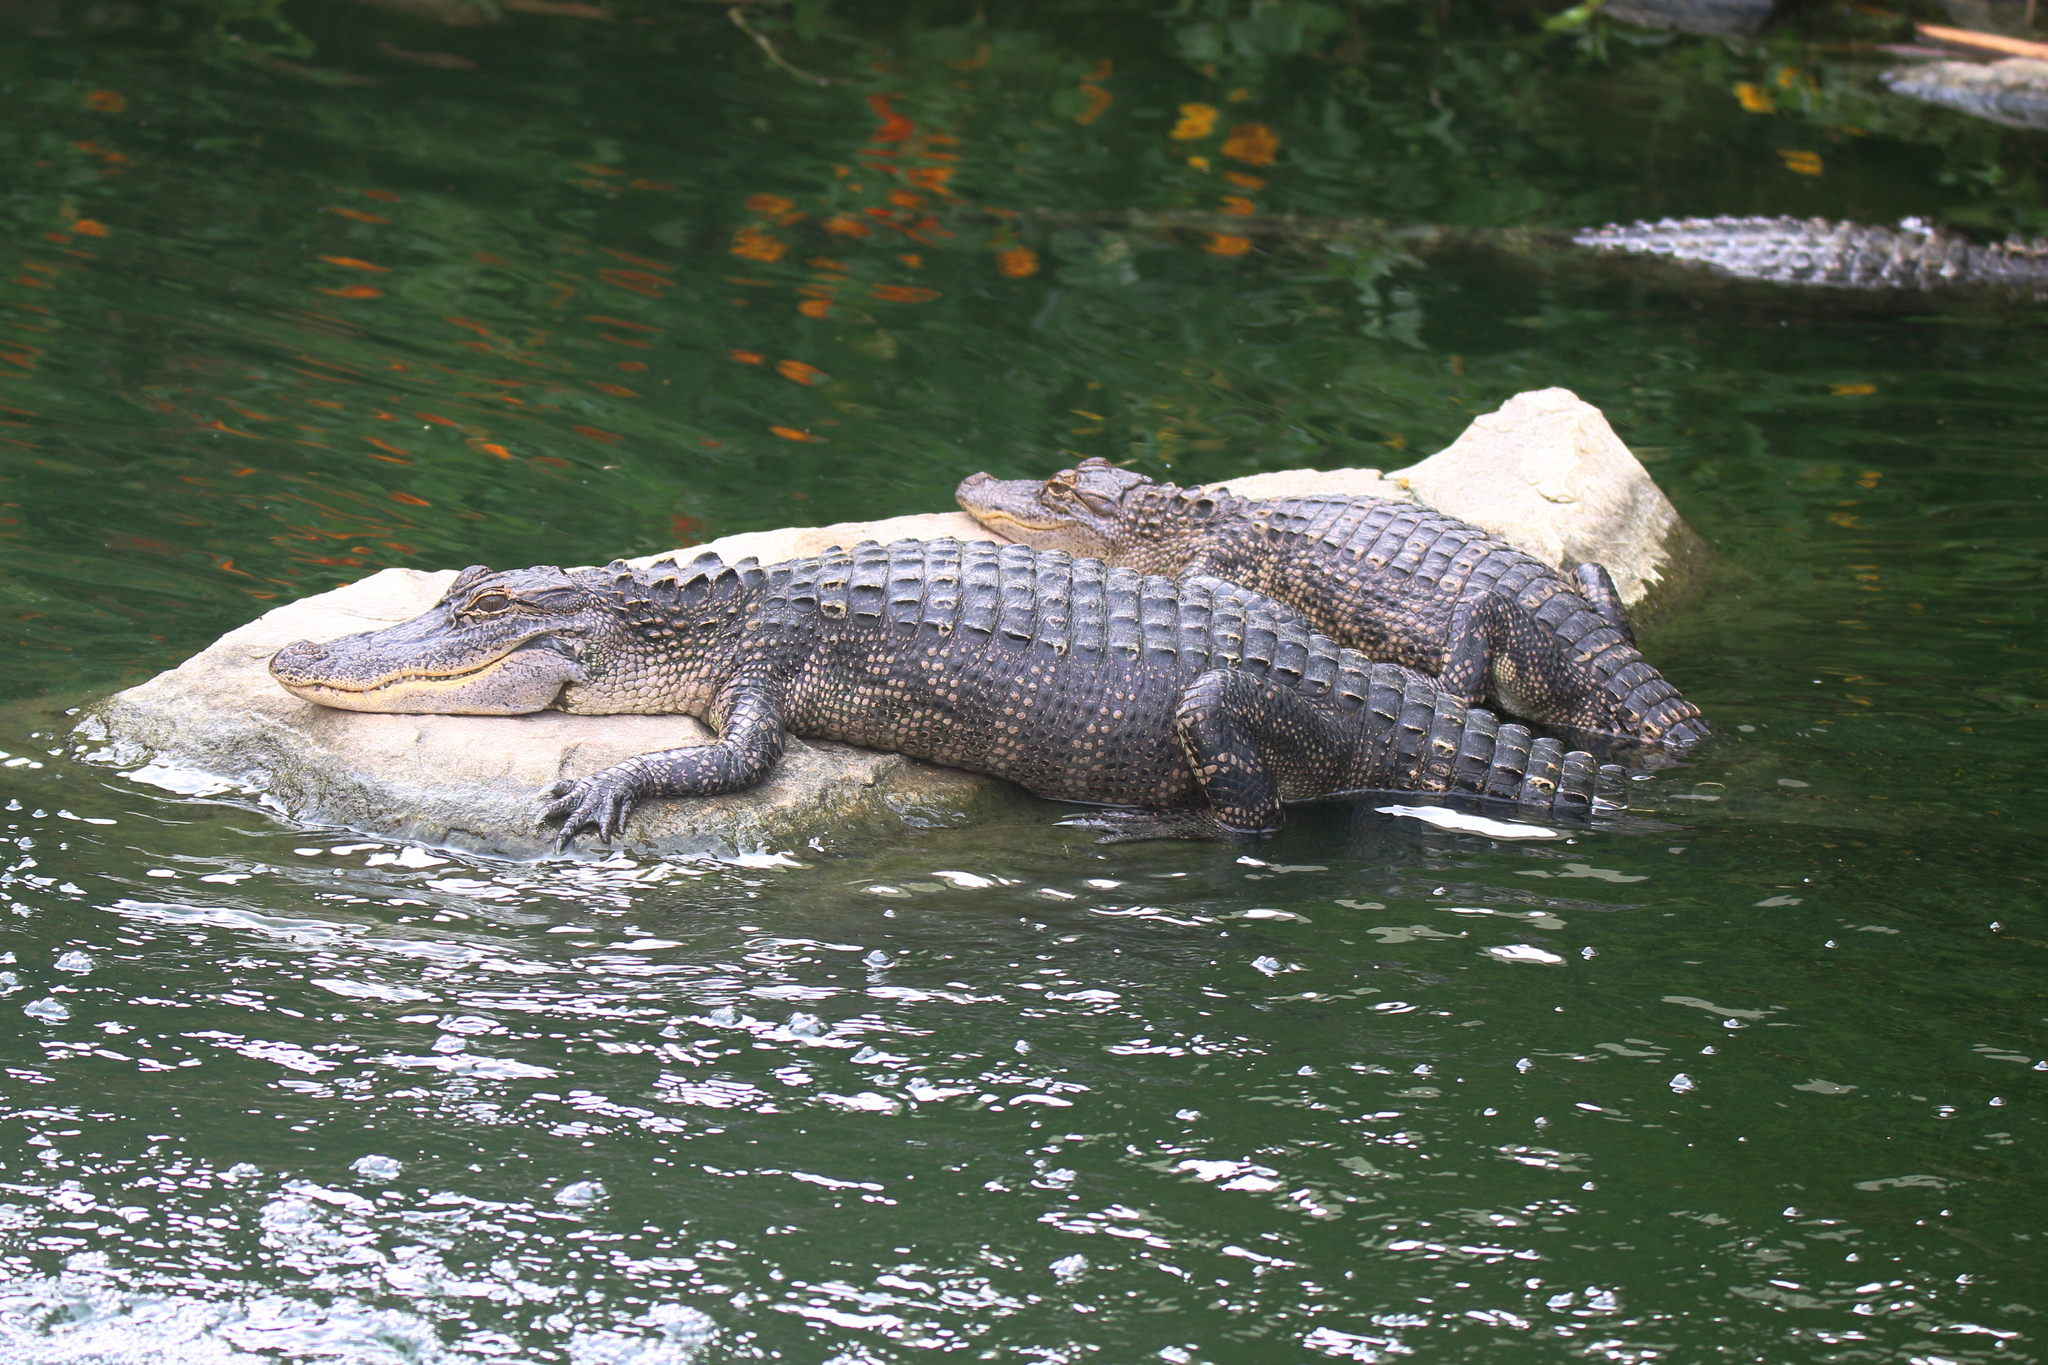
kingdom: Animalia
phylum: Chordata
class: Crocodylia
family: Alligatoridae
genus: Alligator
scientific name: Alligator mississippiensis
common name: American alligator
